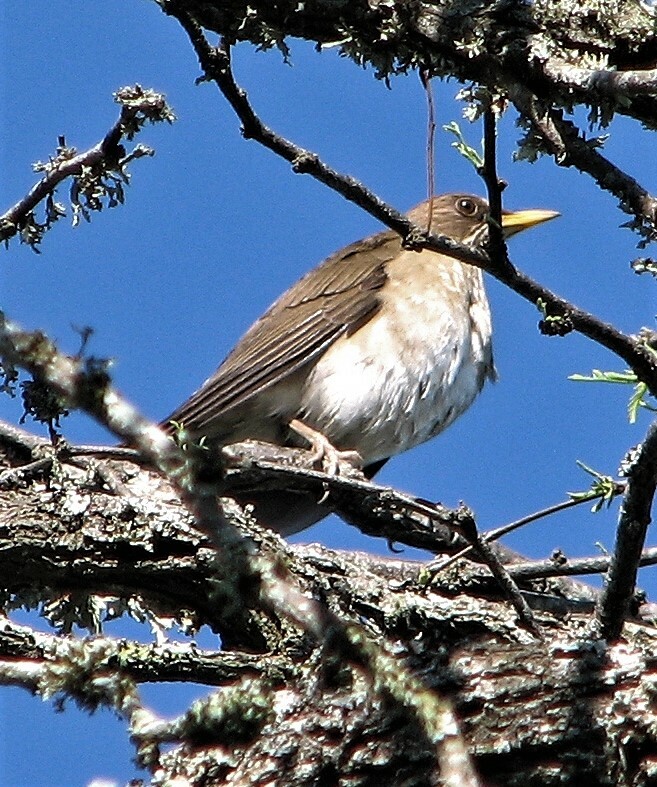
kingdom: Animalia
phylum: Chordata
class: Aves
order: Passeriformes
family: Turdidae
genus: Turdus
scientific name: Turdus amaurochalinus
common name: Creamy-bellied thrush
